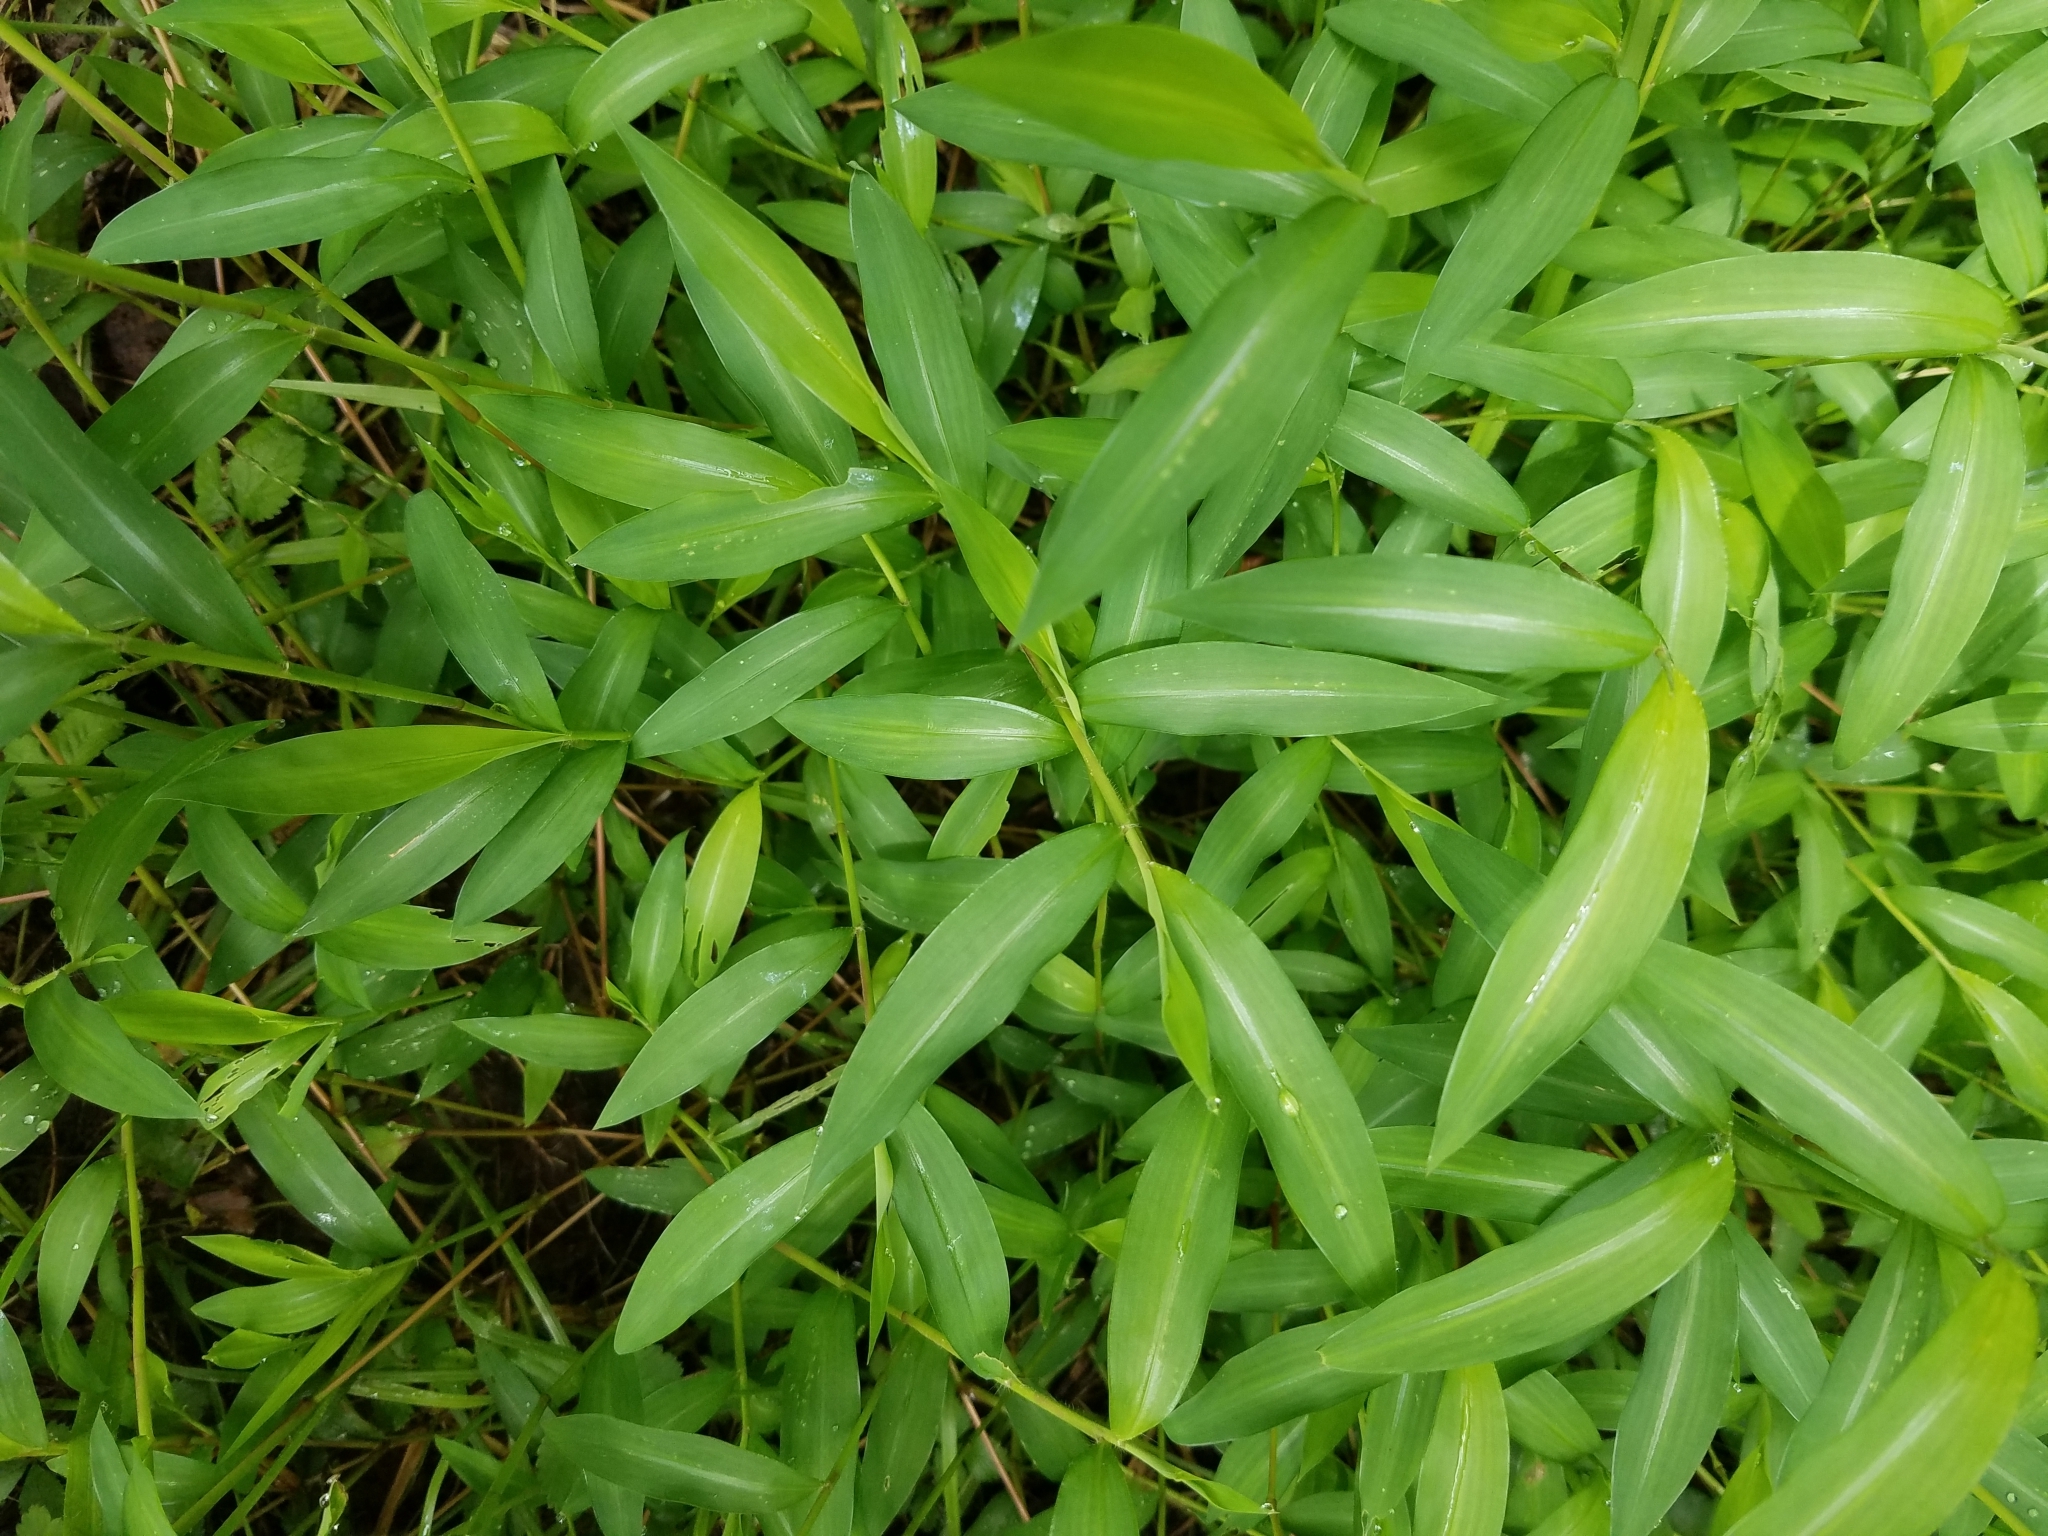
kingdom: Plantae
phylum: Tracheophyta
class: Liliopsida
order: Poales
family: Poaceae
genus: Microstegium
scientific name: Microstegium vimineum
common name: Japanese stiltgrass
